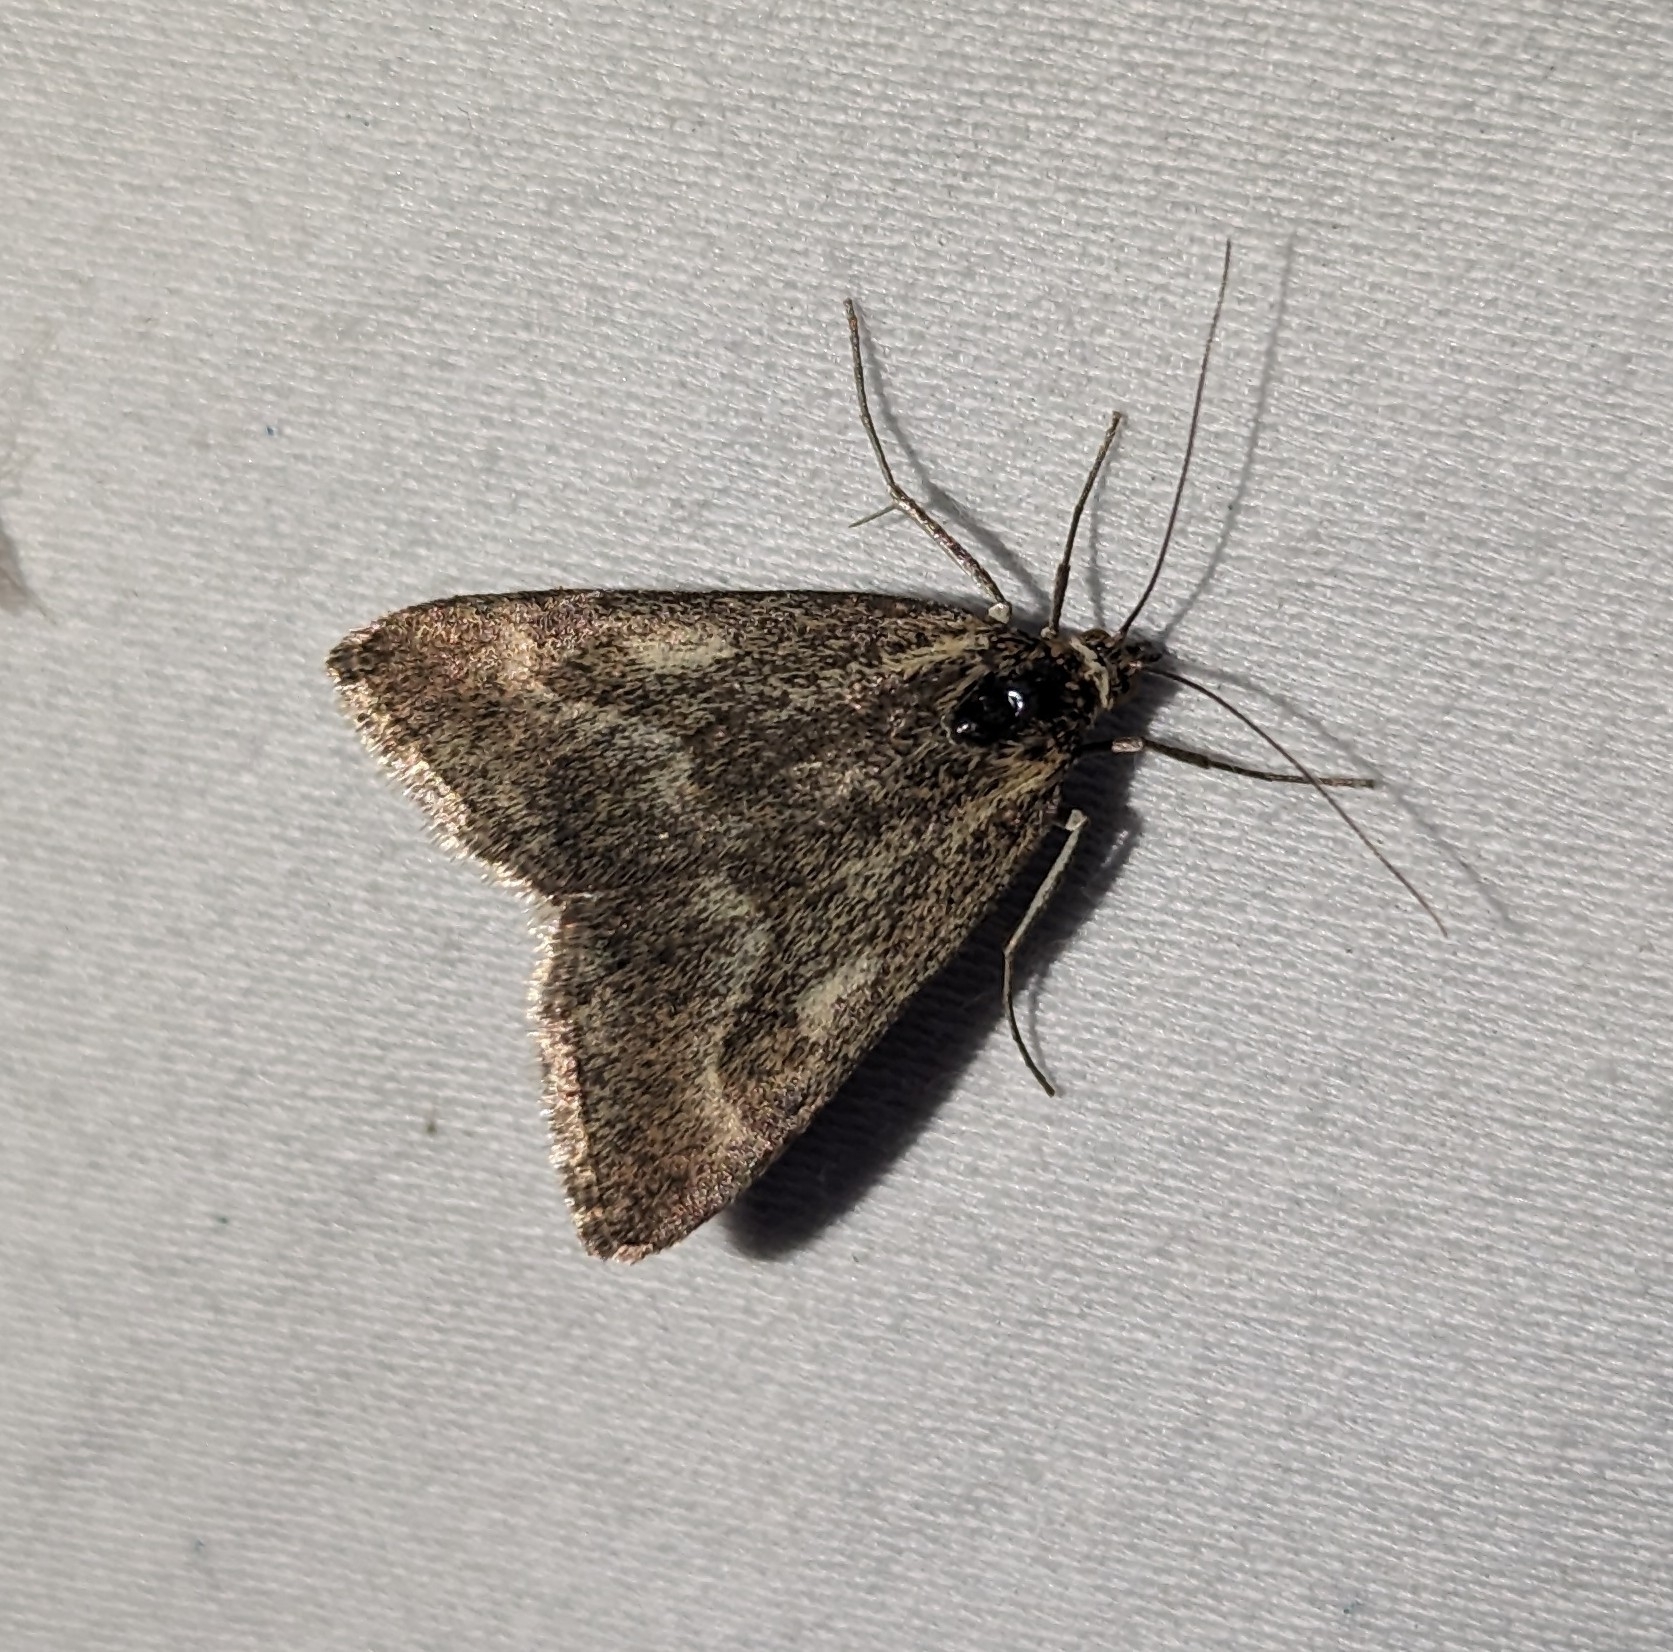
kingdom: Animalia
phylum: Arthropoda
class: Insecta
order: Lepidoptera
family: Crambidae
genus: Pyrausta
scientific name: Pyrausta unifascialis
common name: One-banded pyrausta
